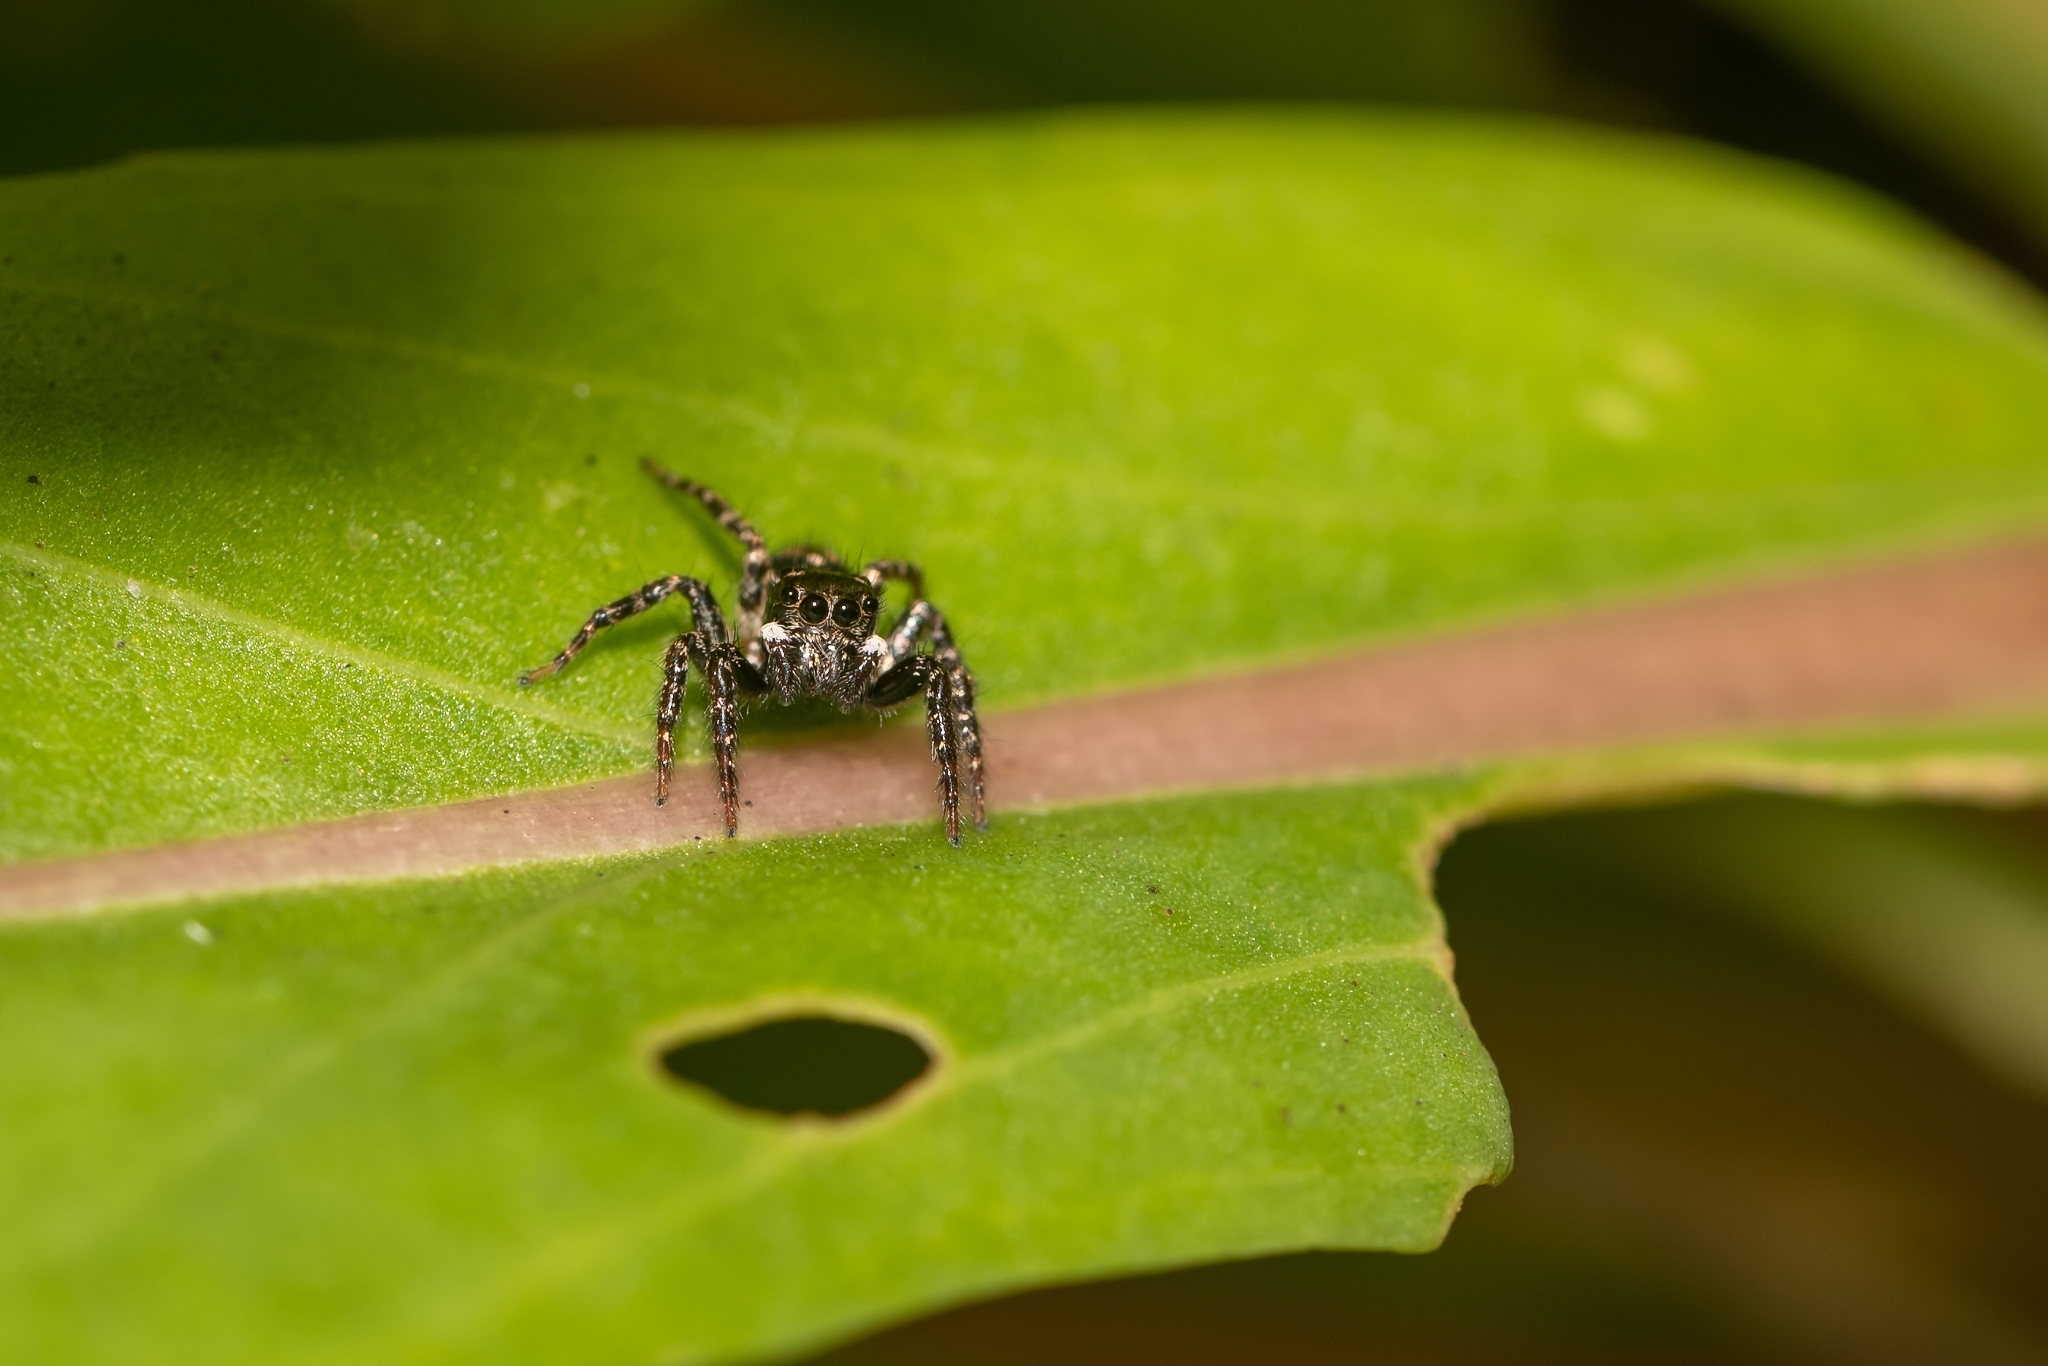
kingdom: Animalia
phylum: Arthropoda
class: Arachnida
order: Araneae
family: Salticidae
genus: Anasaitis
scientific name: Anasaitis canosa
